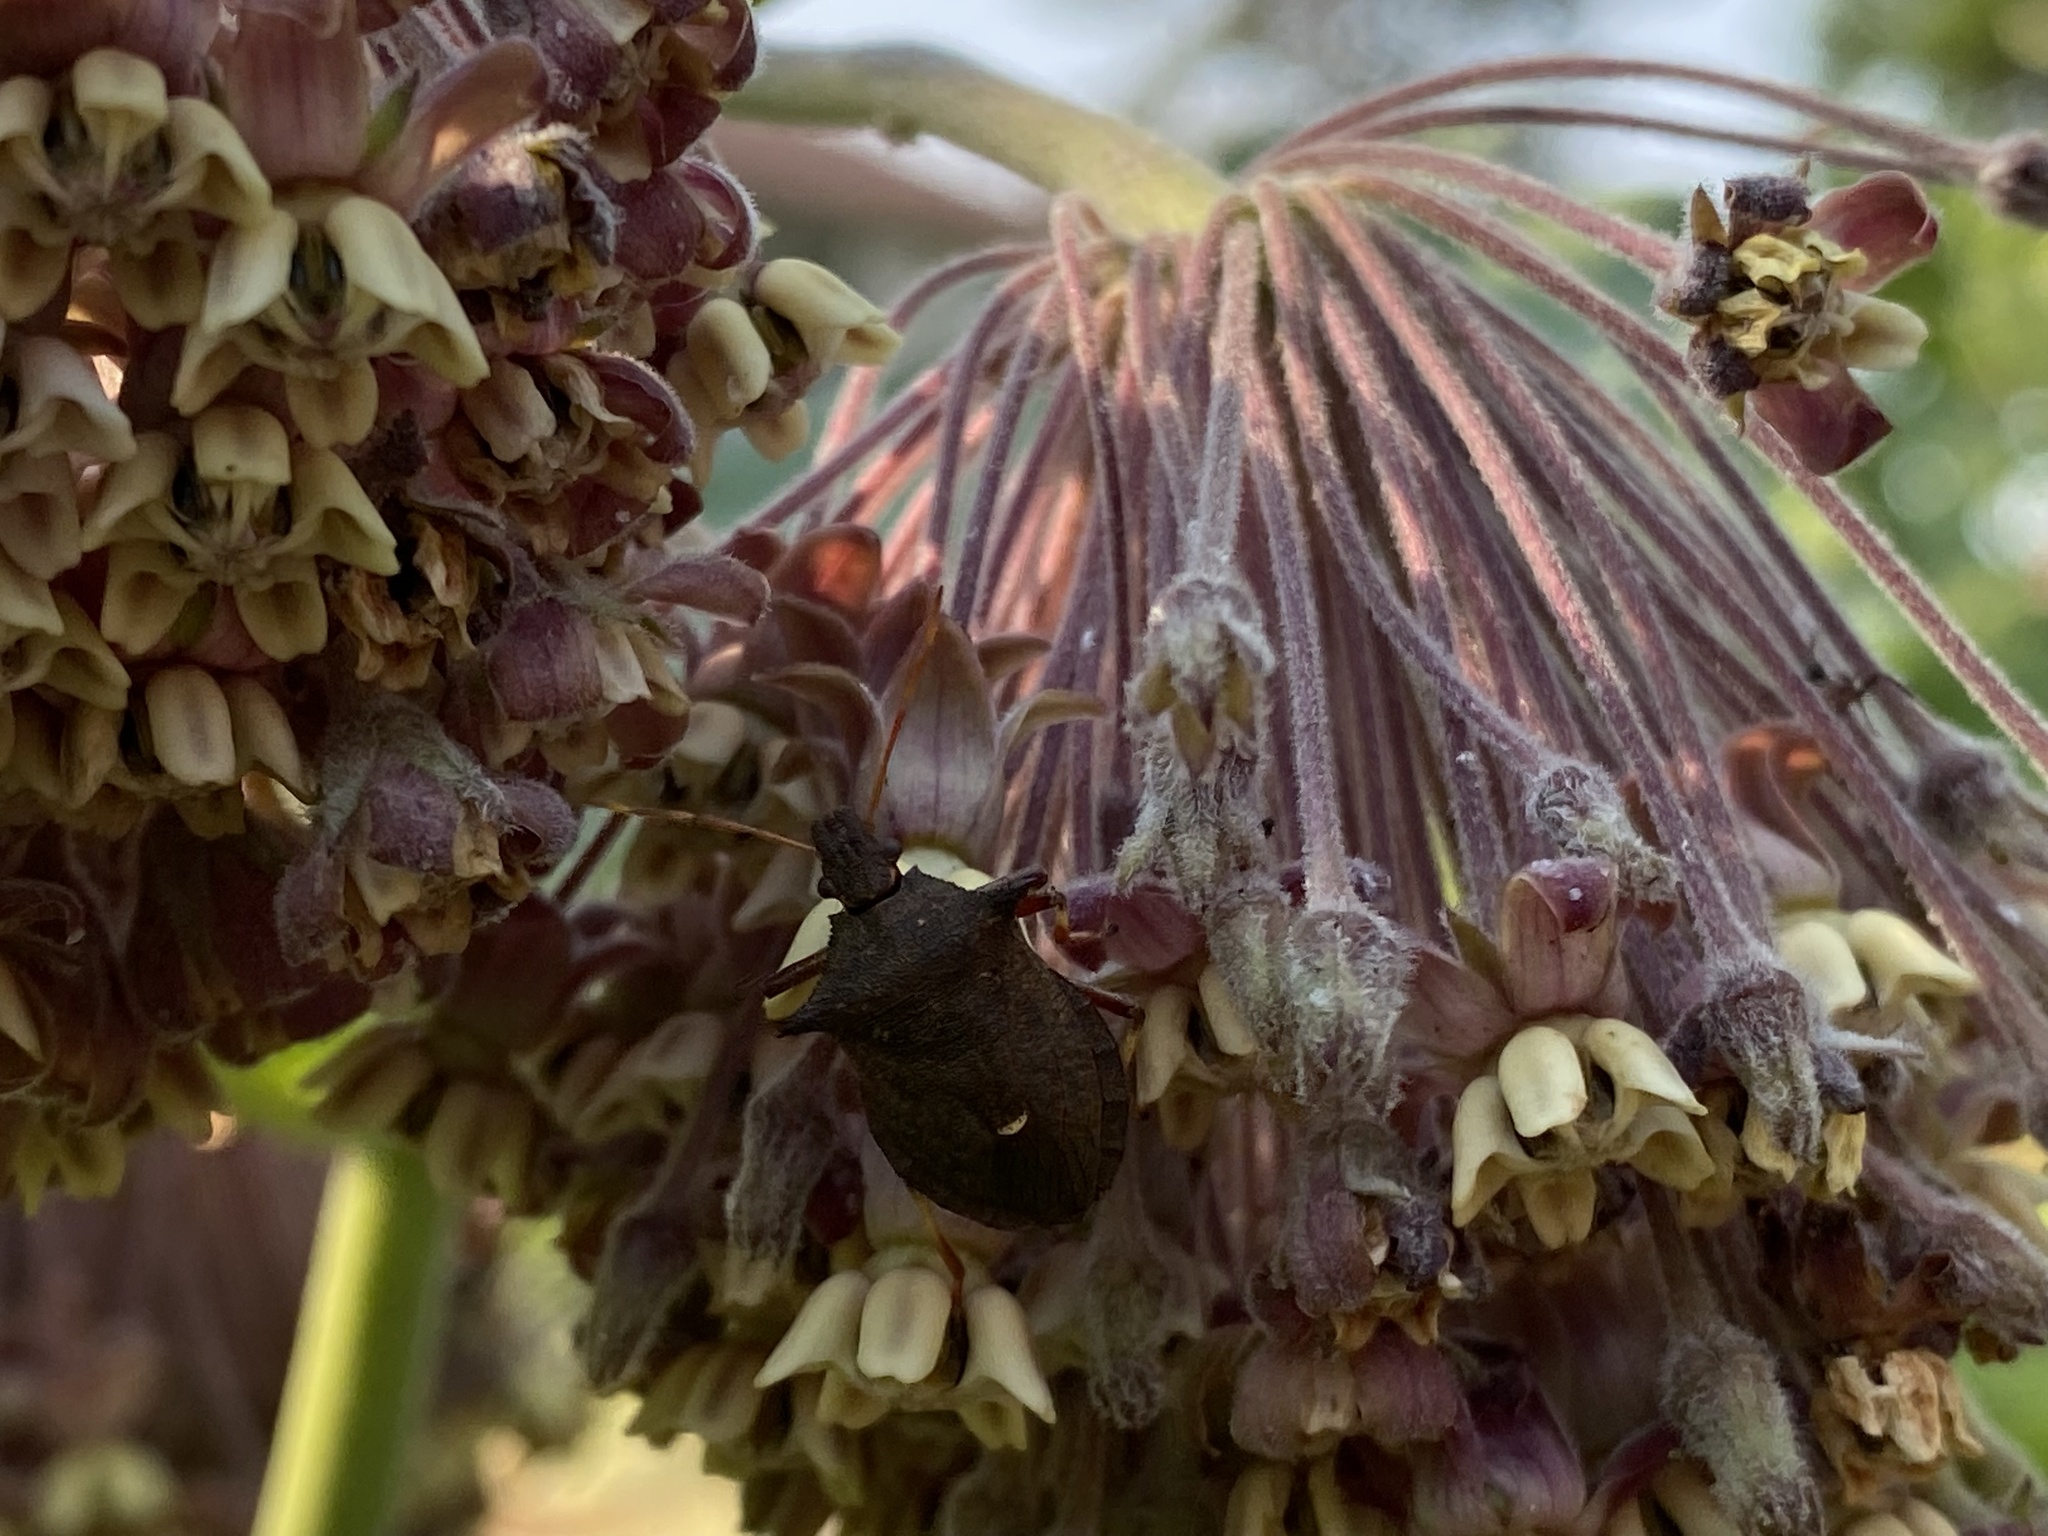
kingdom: Animalia
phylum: Arthropoda
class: Insecta
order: Hemiptera
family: Pentatomidae
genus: Picromerus
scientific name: Picromerus bidens
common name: Spiked shieldbug
